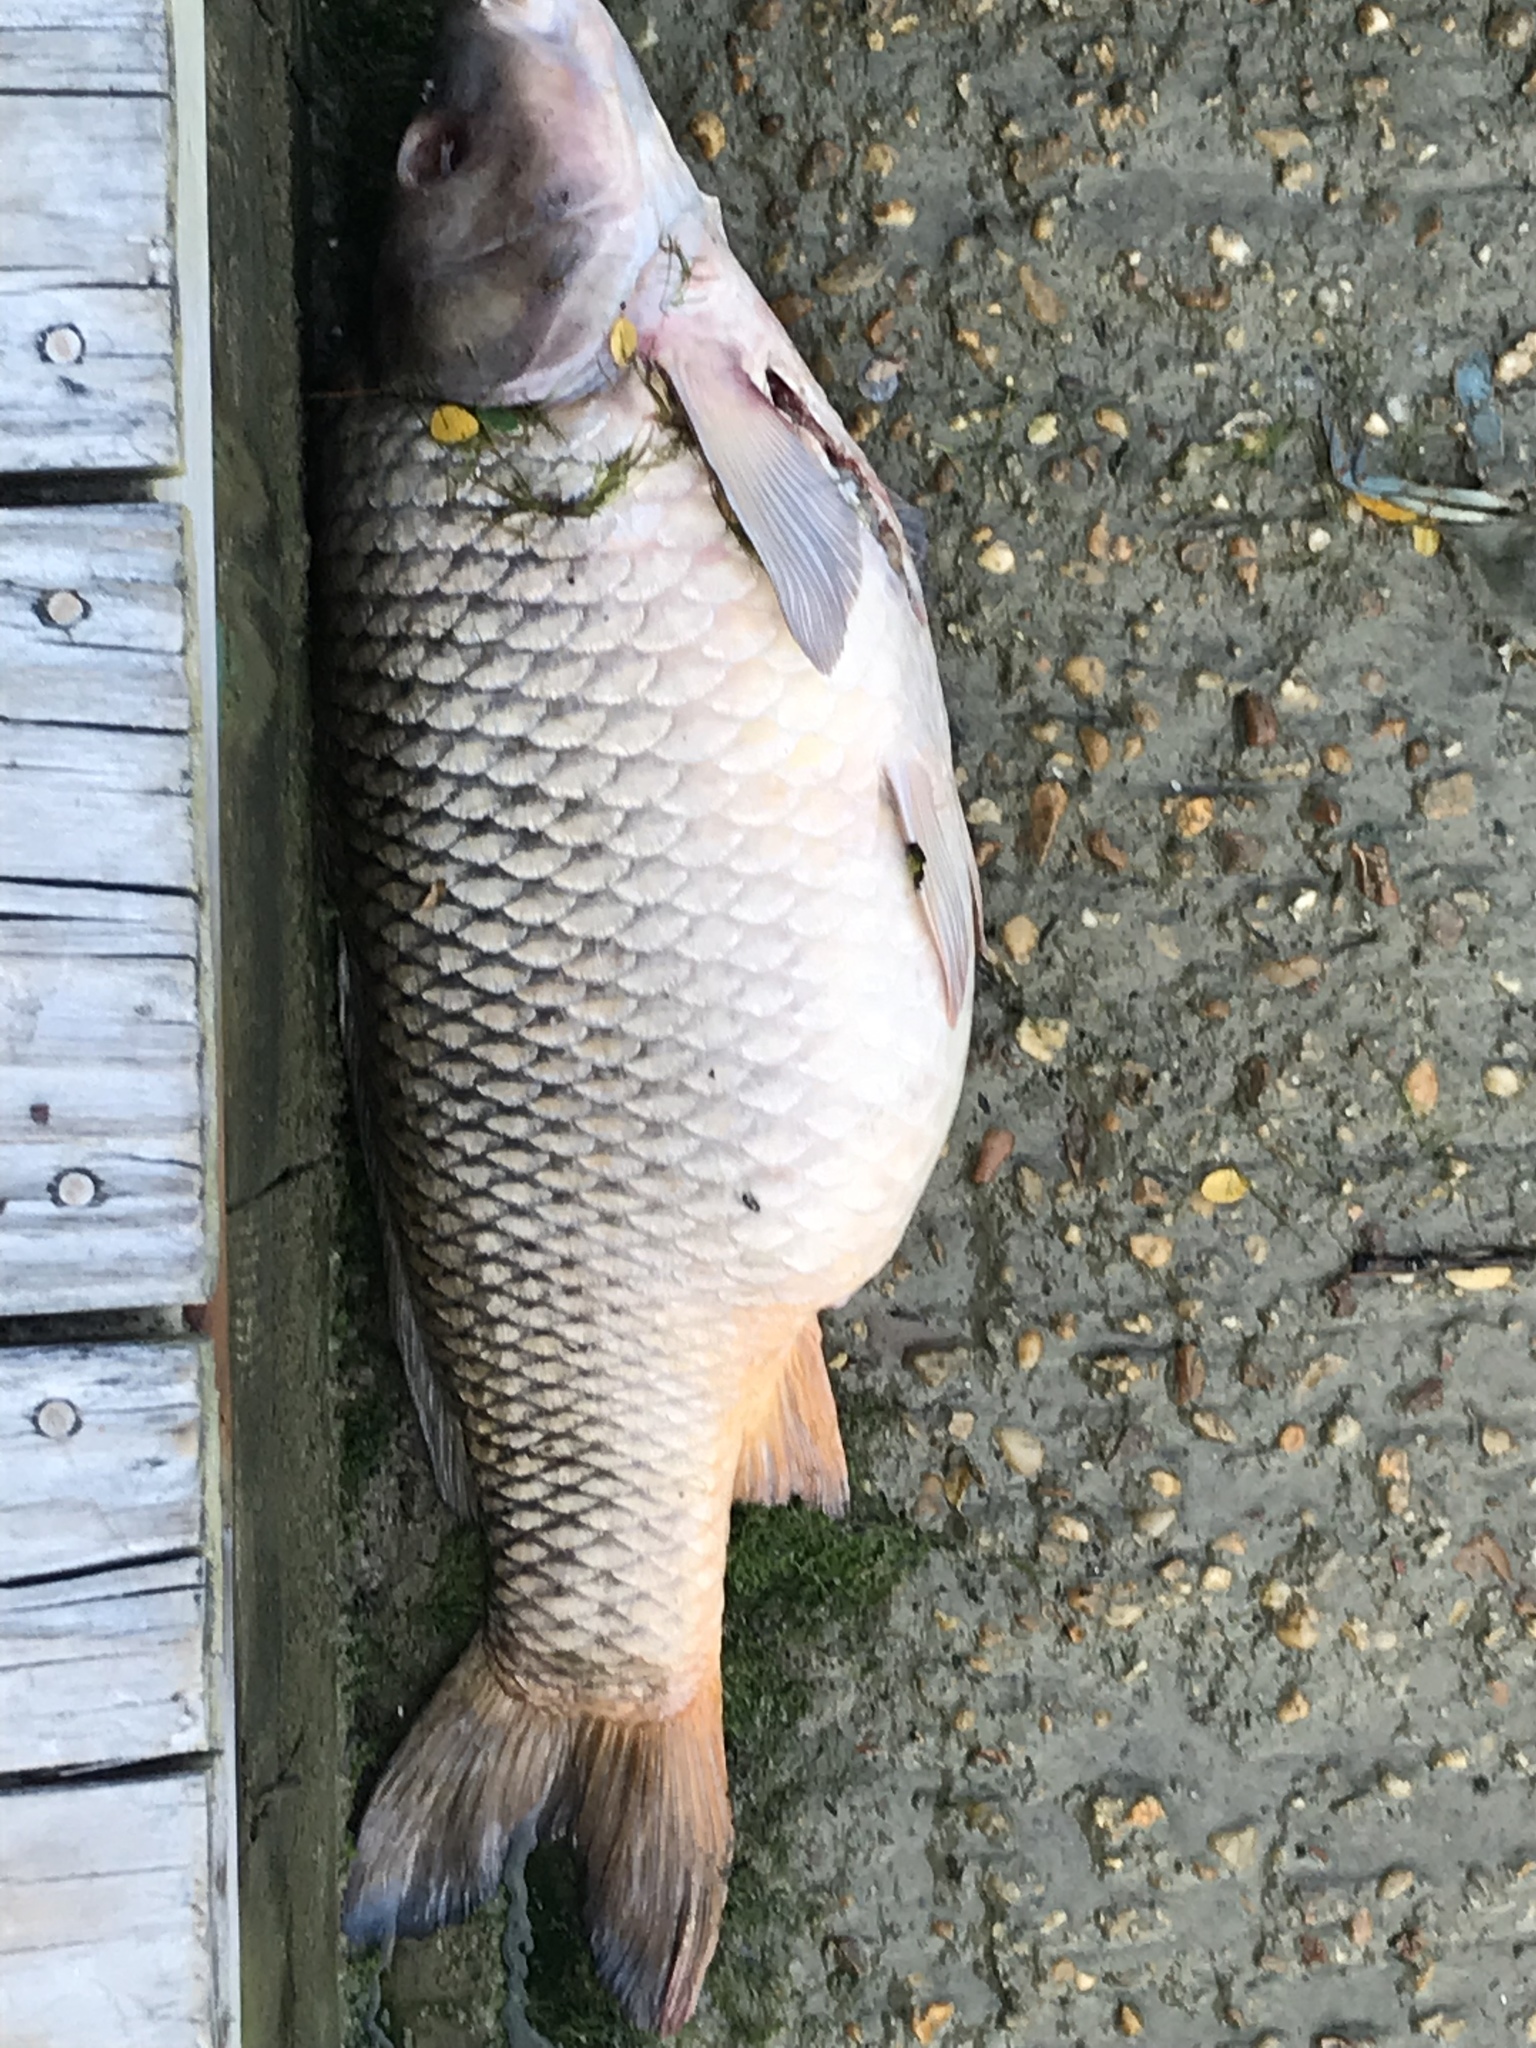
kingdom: Animalia
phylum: Chordata
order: Cypriniformes
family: Cyprinidae
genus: Cyprinus
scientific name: Cyprinus carpio
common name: Common carp
